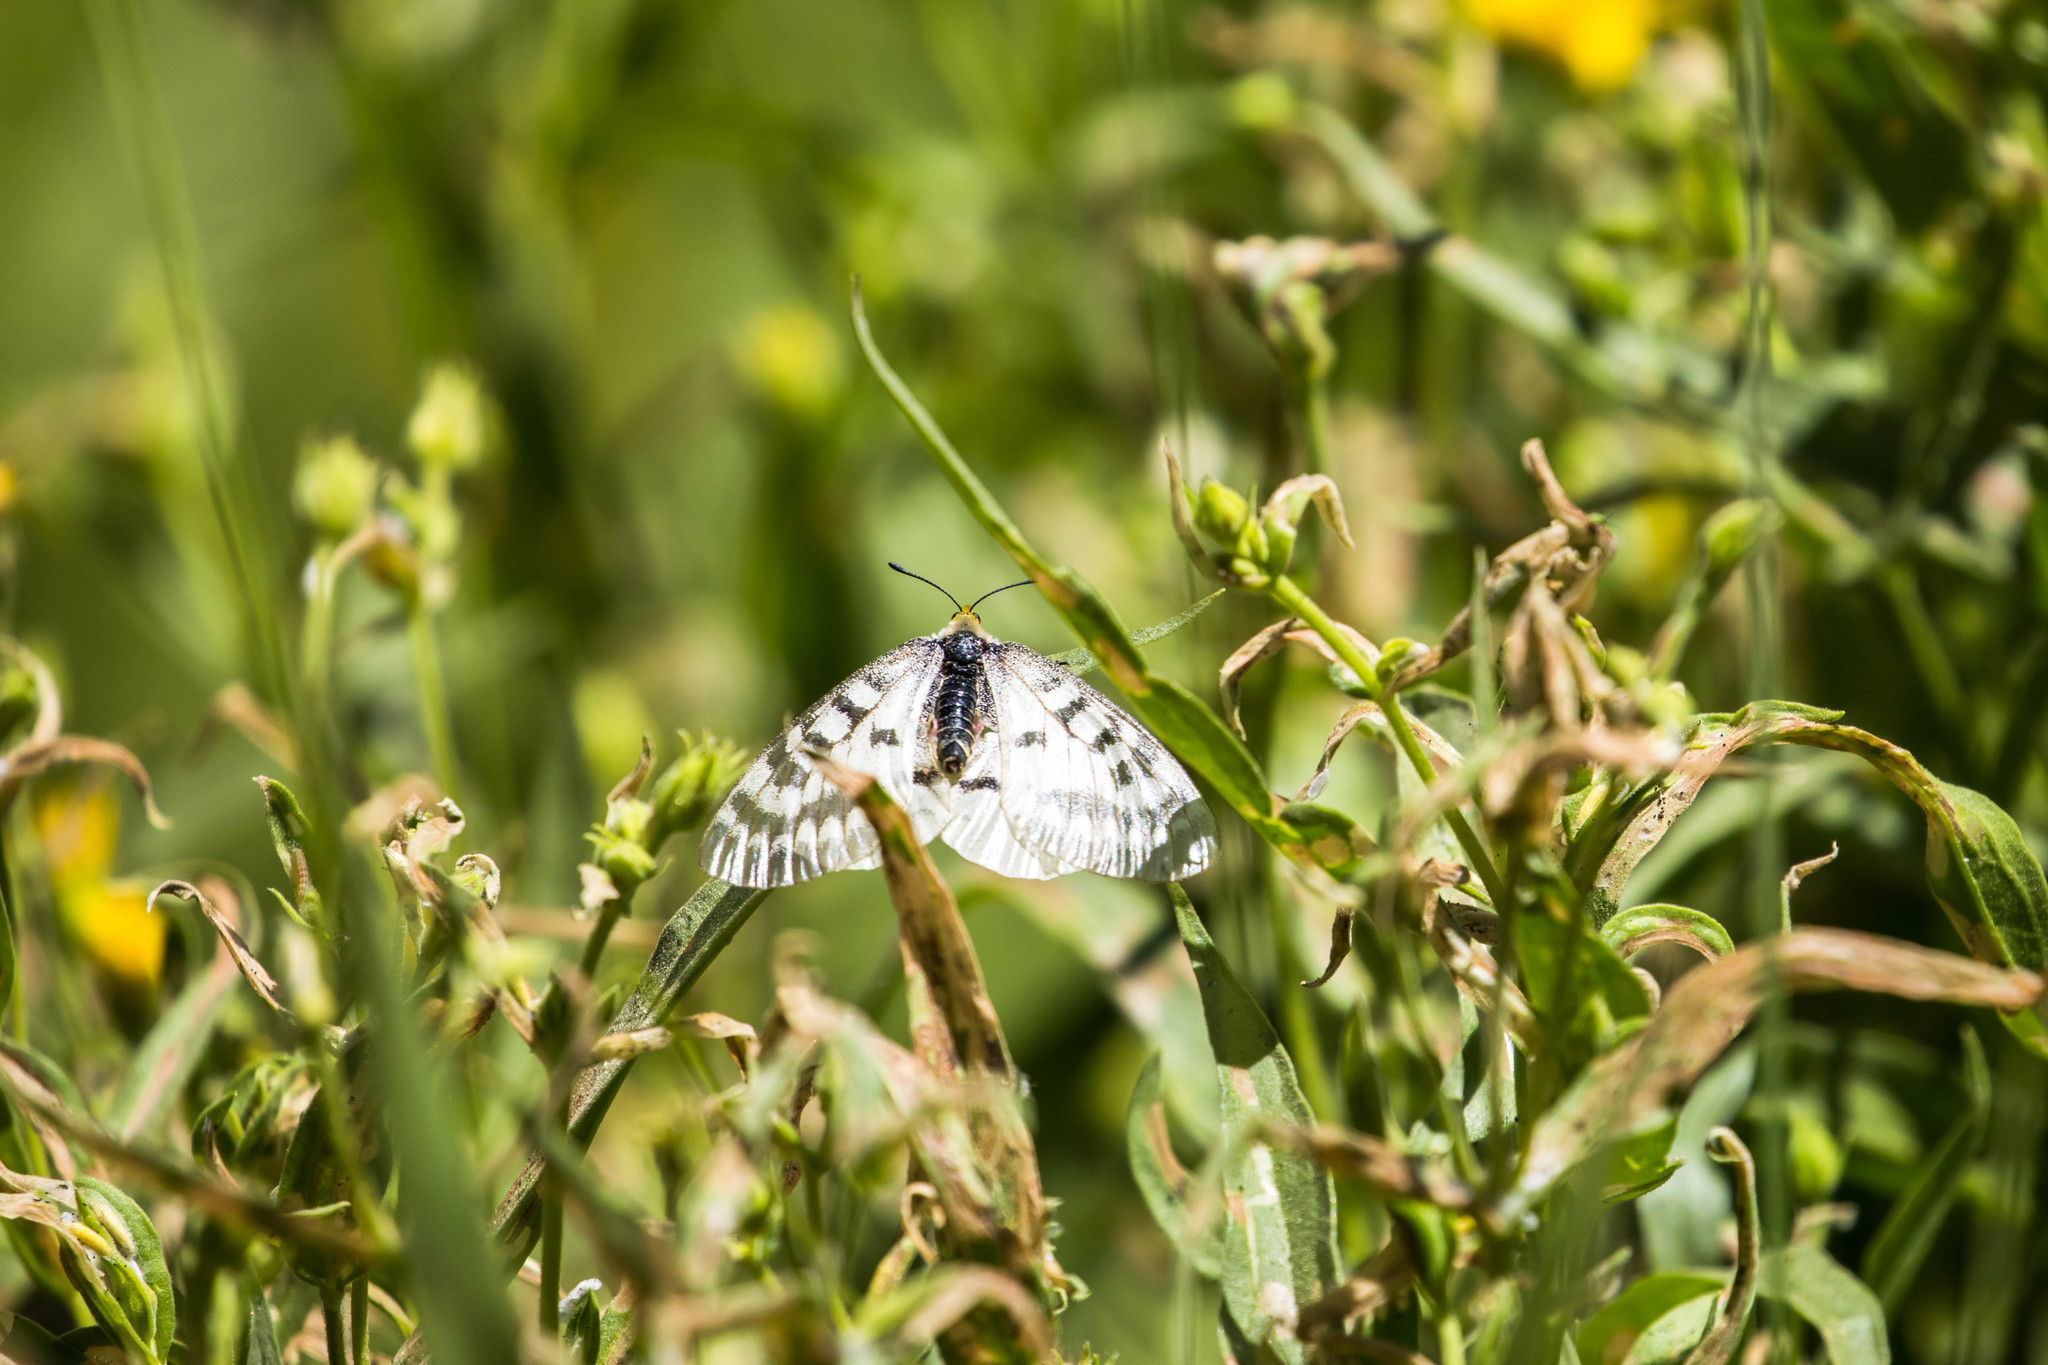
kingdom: Animalia
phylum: Arthropoda
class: Insecta
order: Lepidoptera
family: Papilionidae
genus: Parnassius
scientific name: Parnassius clodius
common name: American apollo
